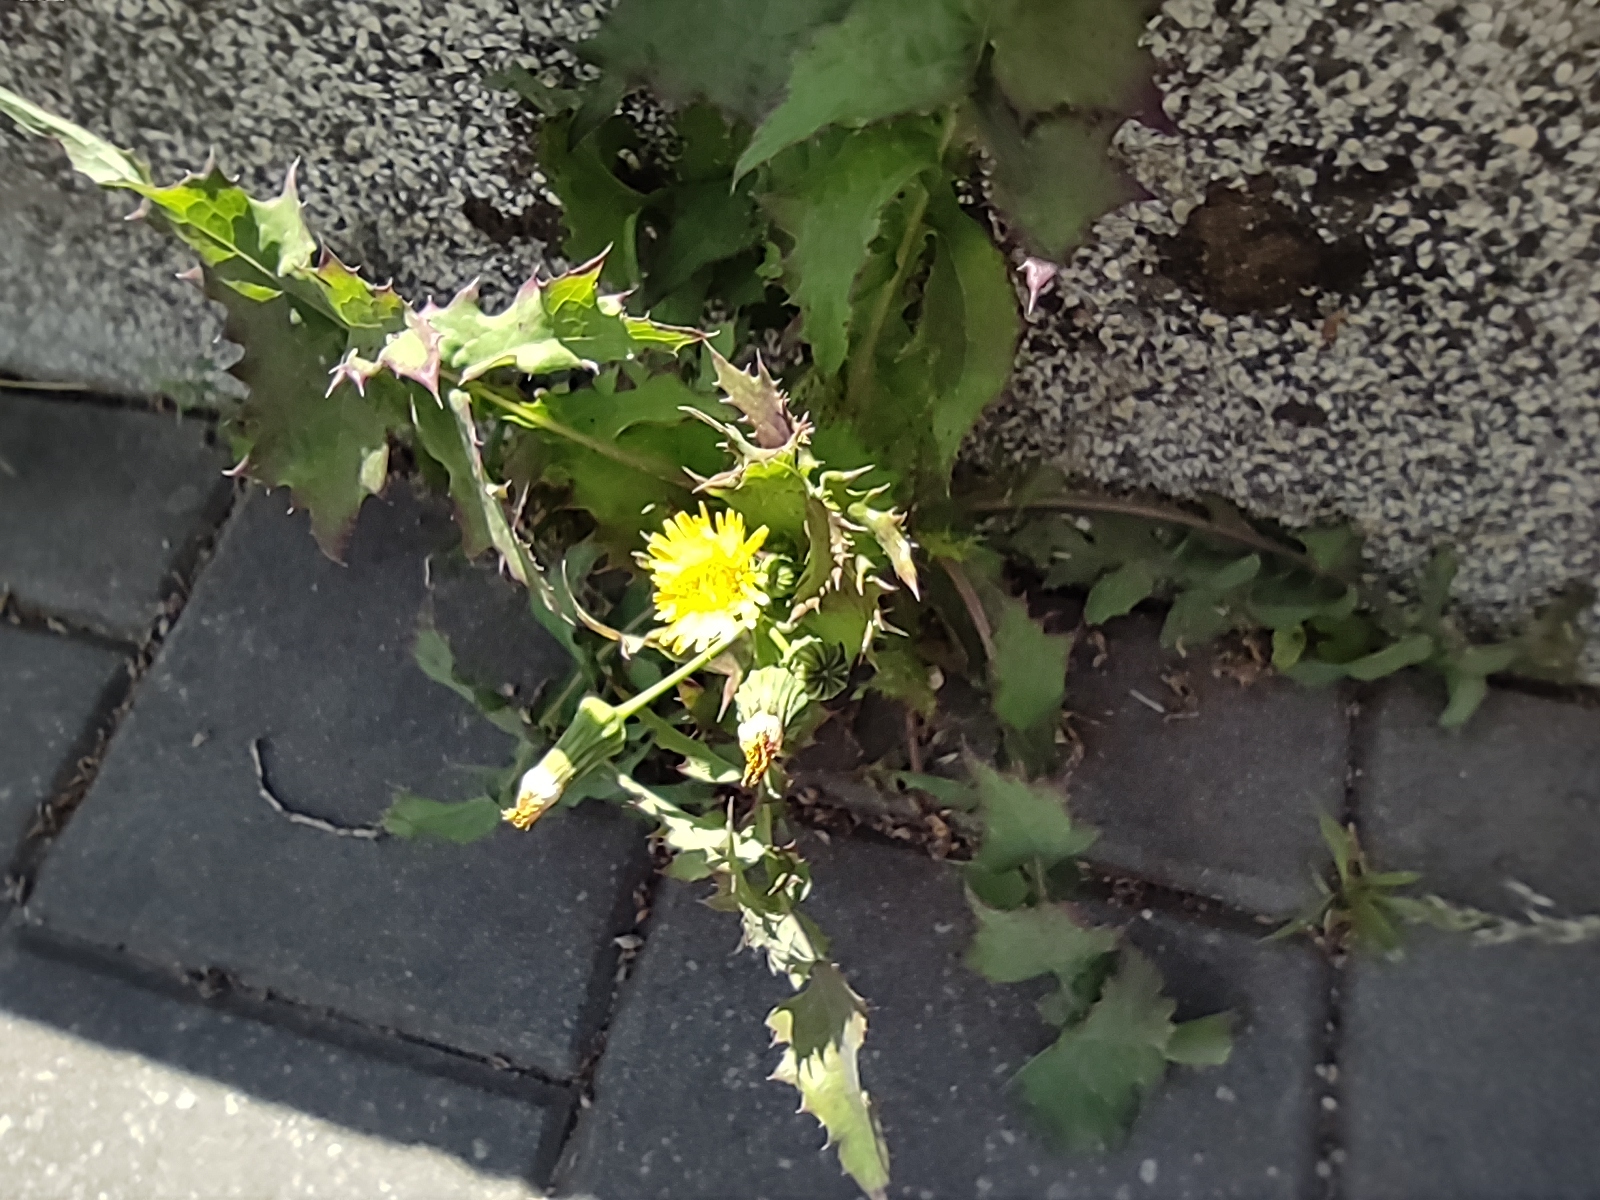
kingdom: Plantae
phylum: Tracheophyta
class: Magnoliopsida
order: Asterales
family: Asteraceae
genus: Sonchus
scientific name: Sonchus oleraceus
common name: Common sowthistle
